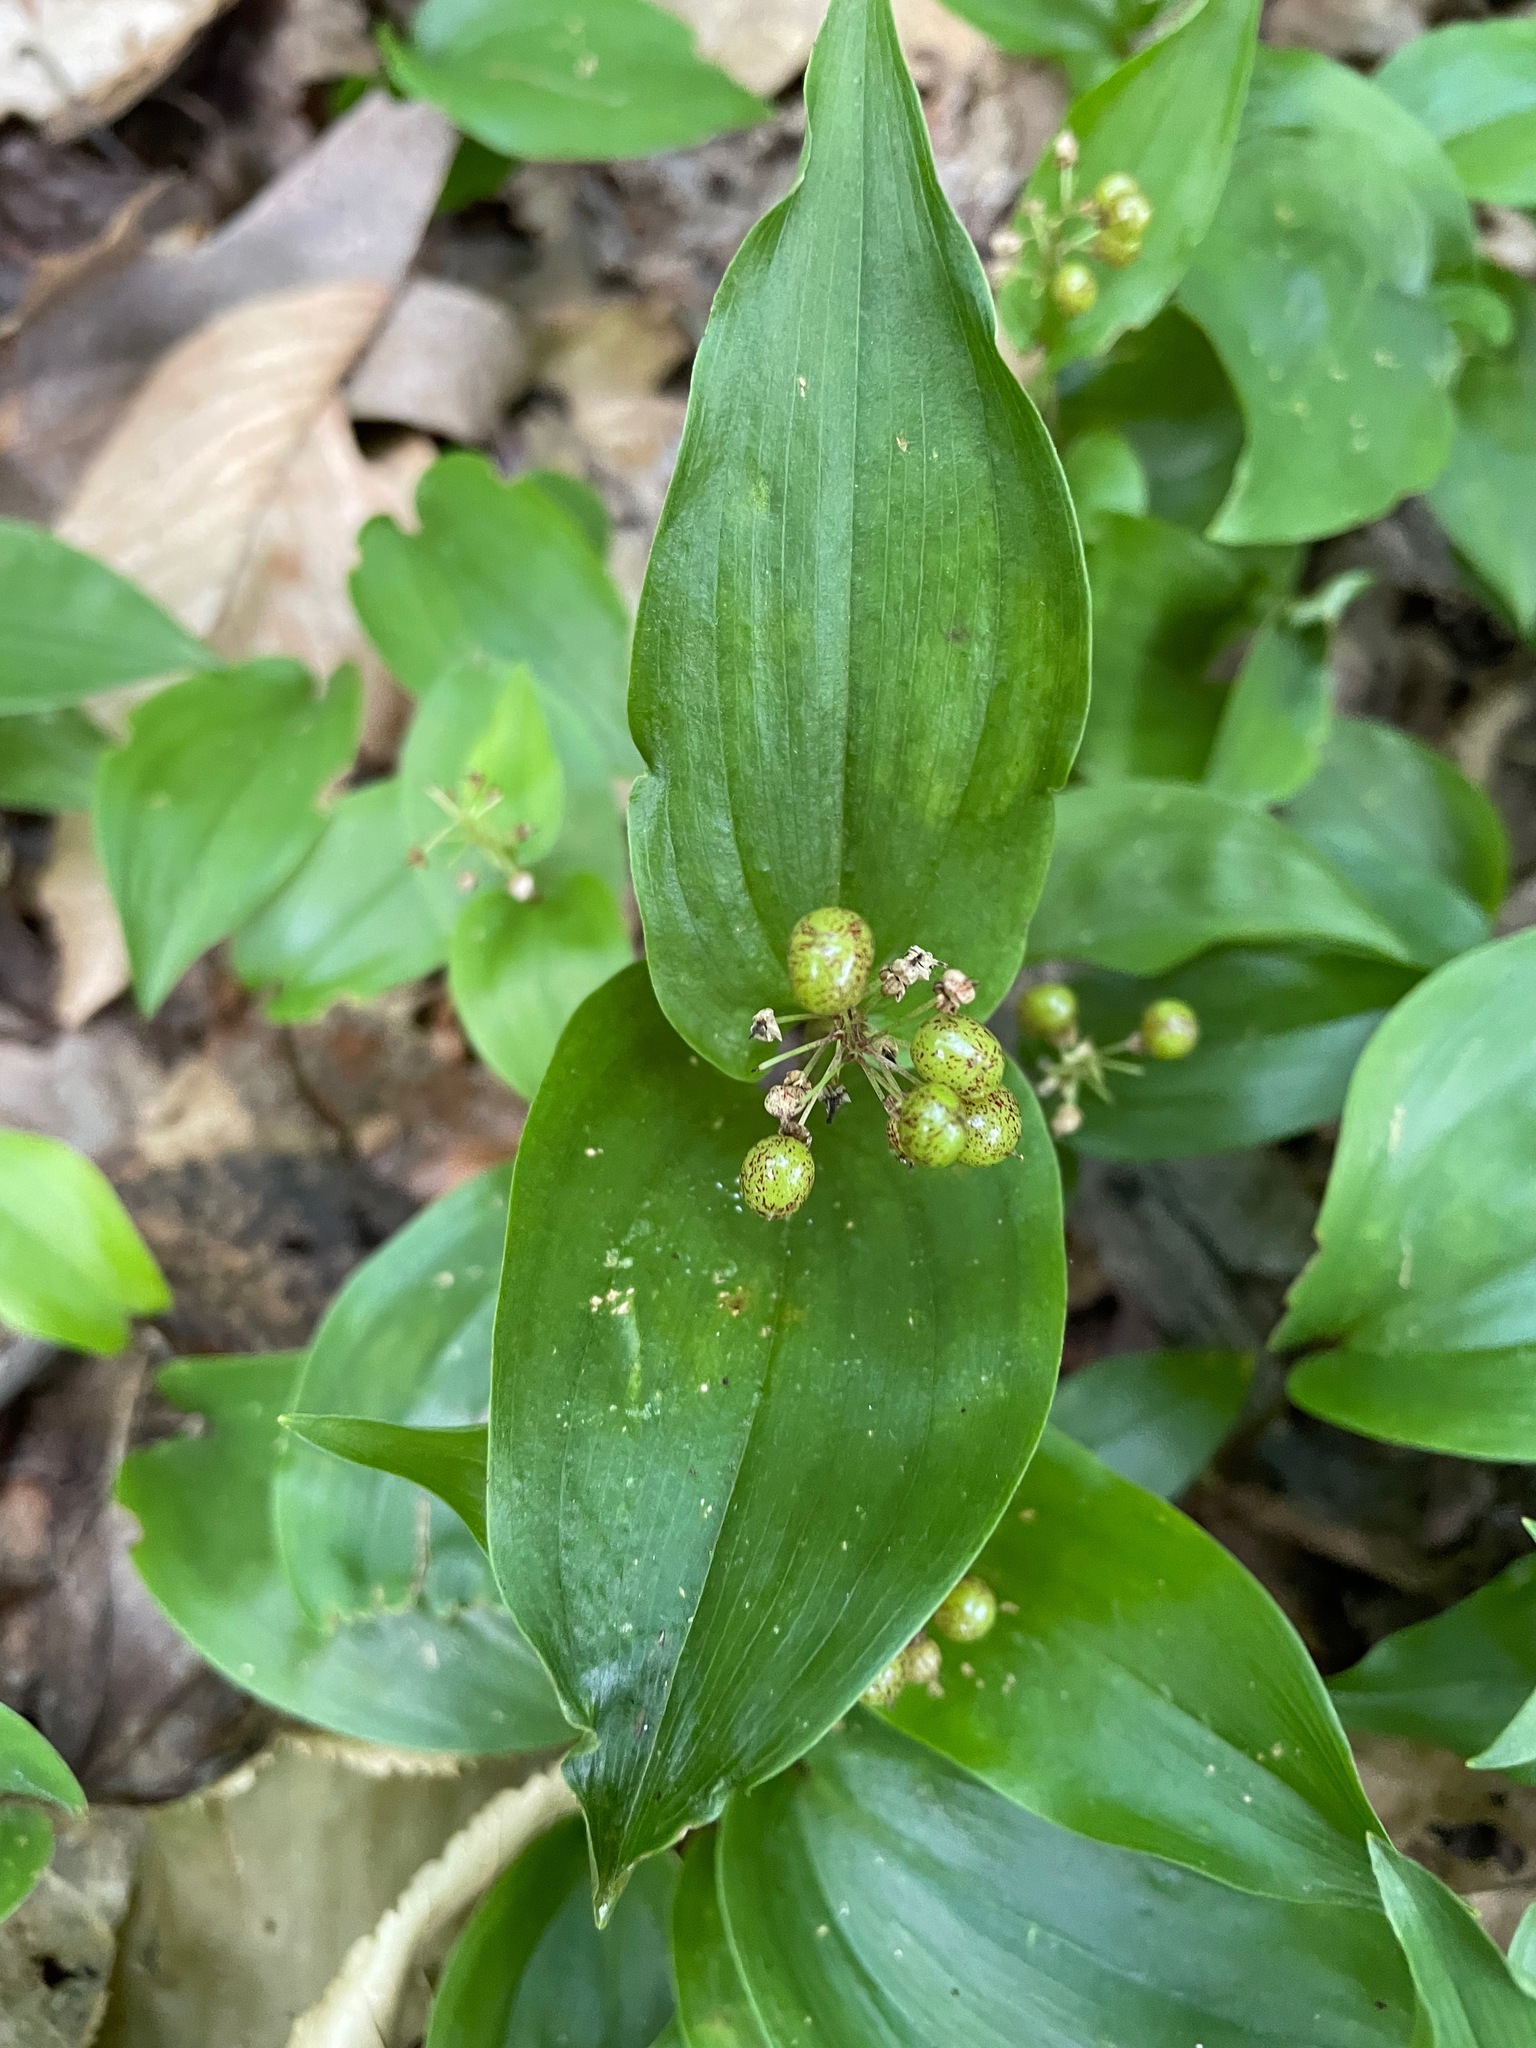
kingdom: Plantae
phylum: Tracheophyta
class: Liliopsida
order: Asparagales
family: Asparagaceae
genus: Maianthemum
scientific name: Maianthemum canadense
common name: False lily-of-the-valley
